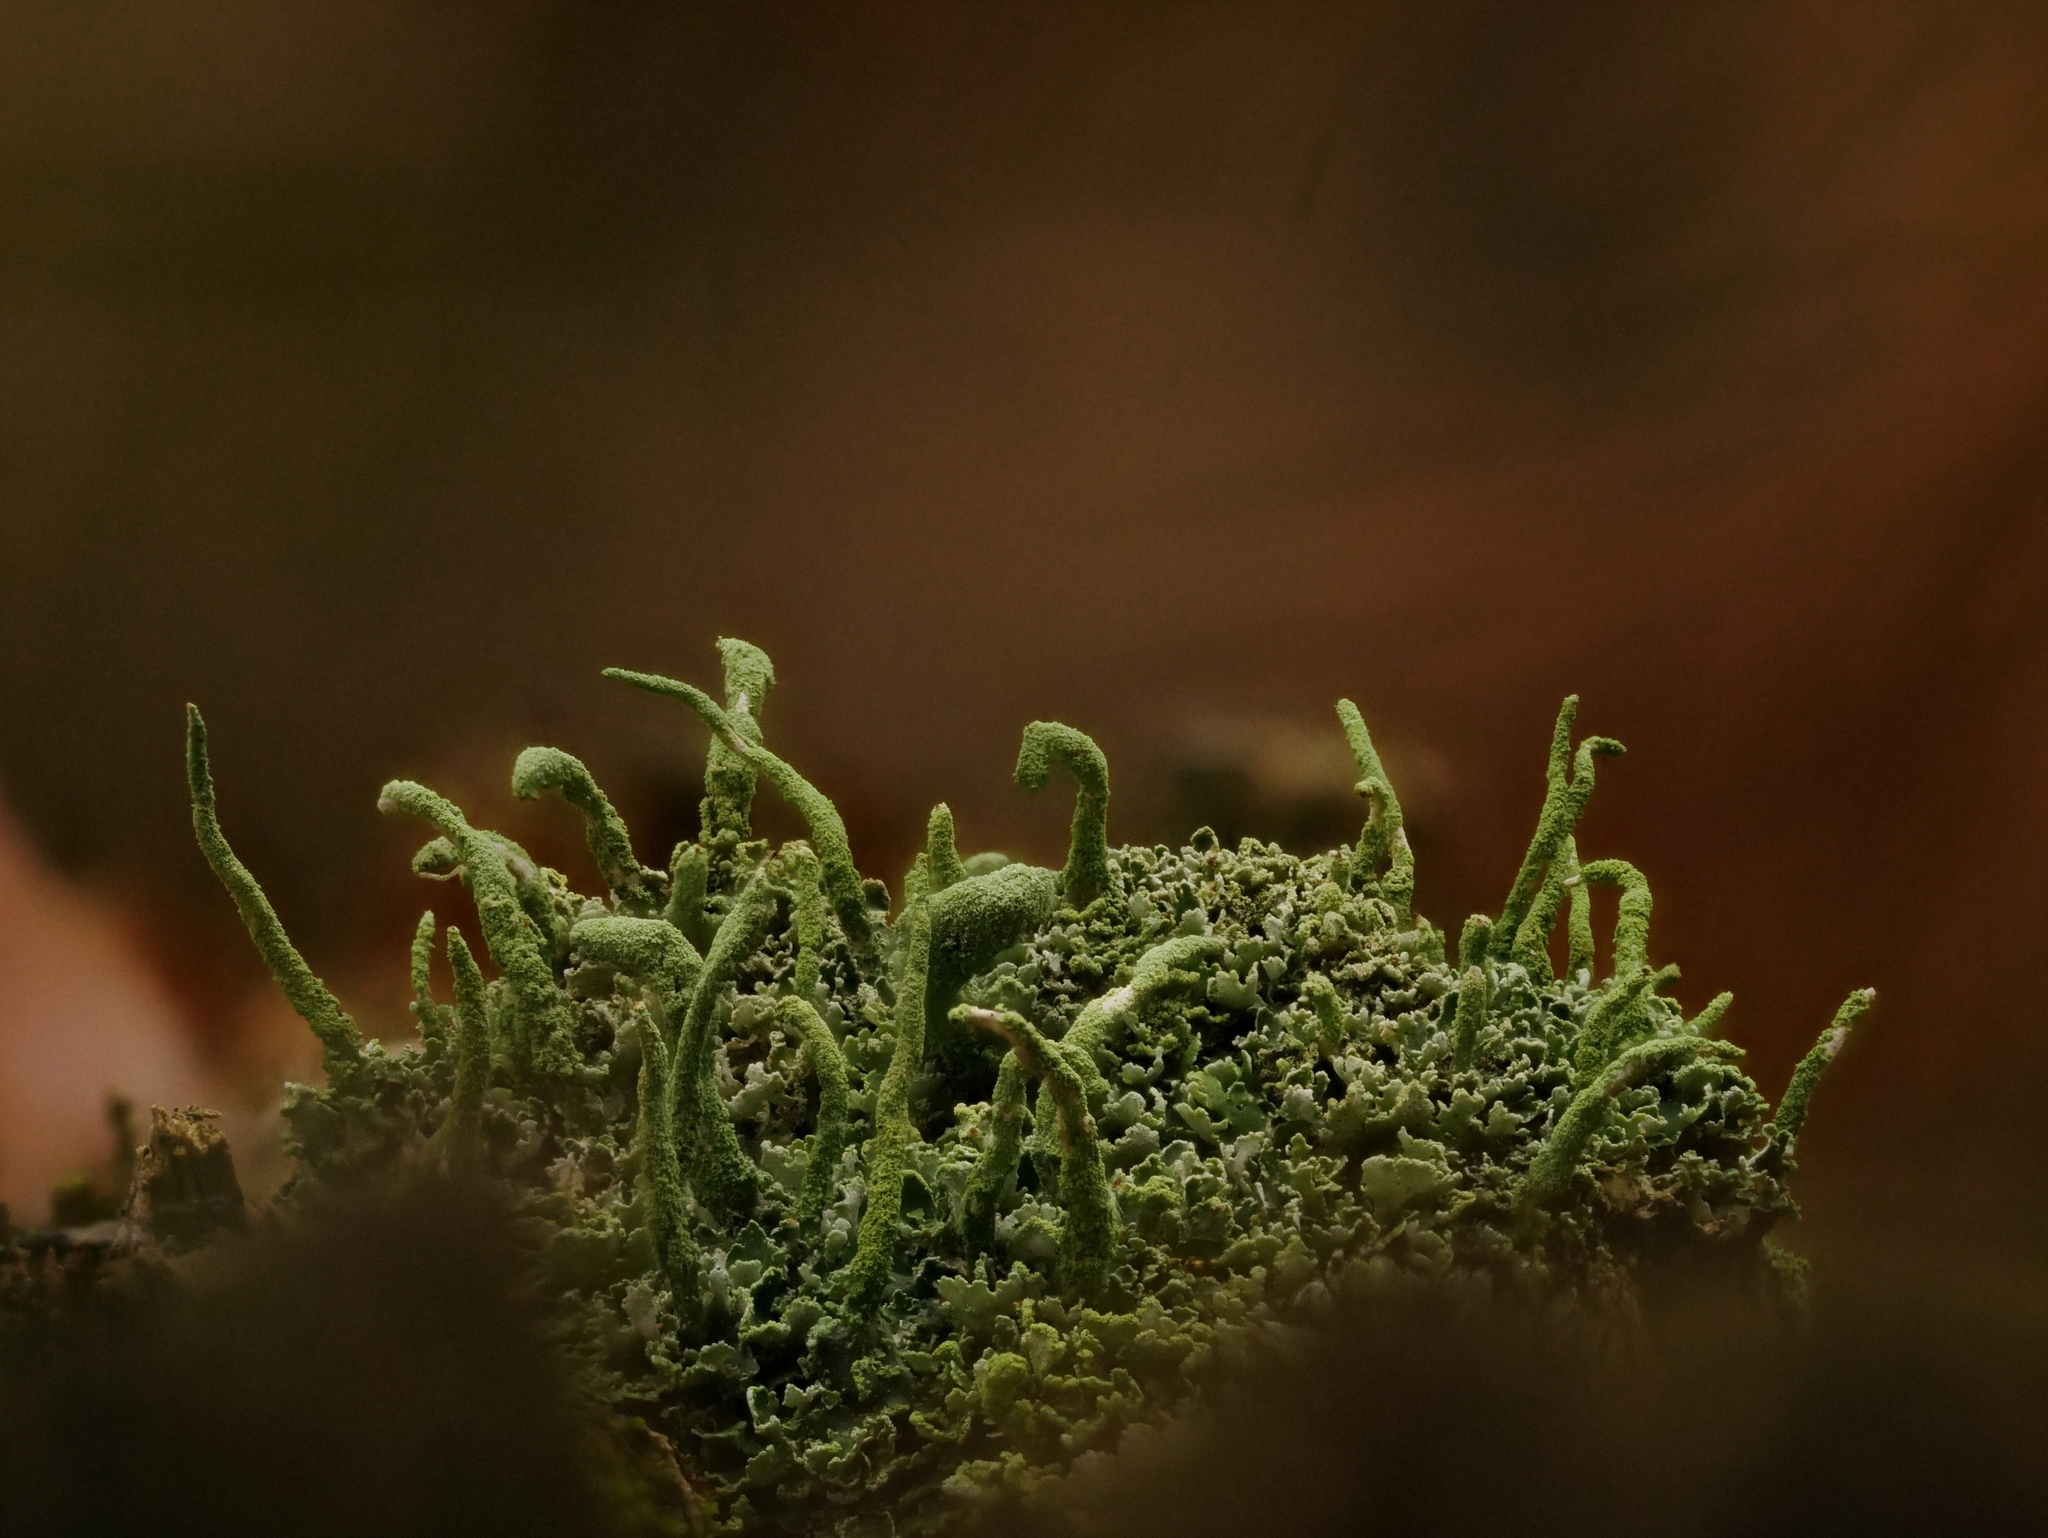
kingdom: Fungi
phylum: Ascomycota
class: Lecanoromycetes
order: Lecanorales
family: Cladoniaceae
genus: Cladonia
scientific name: Cladonia coniocraea
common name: Common powderhorn
